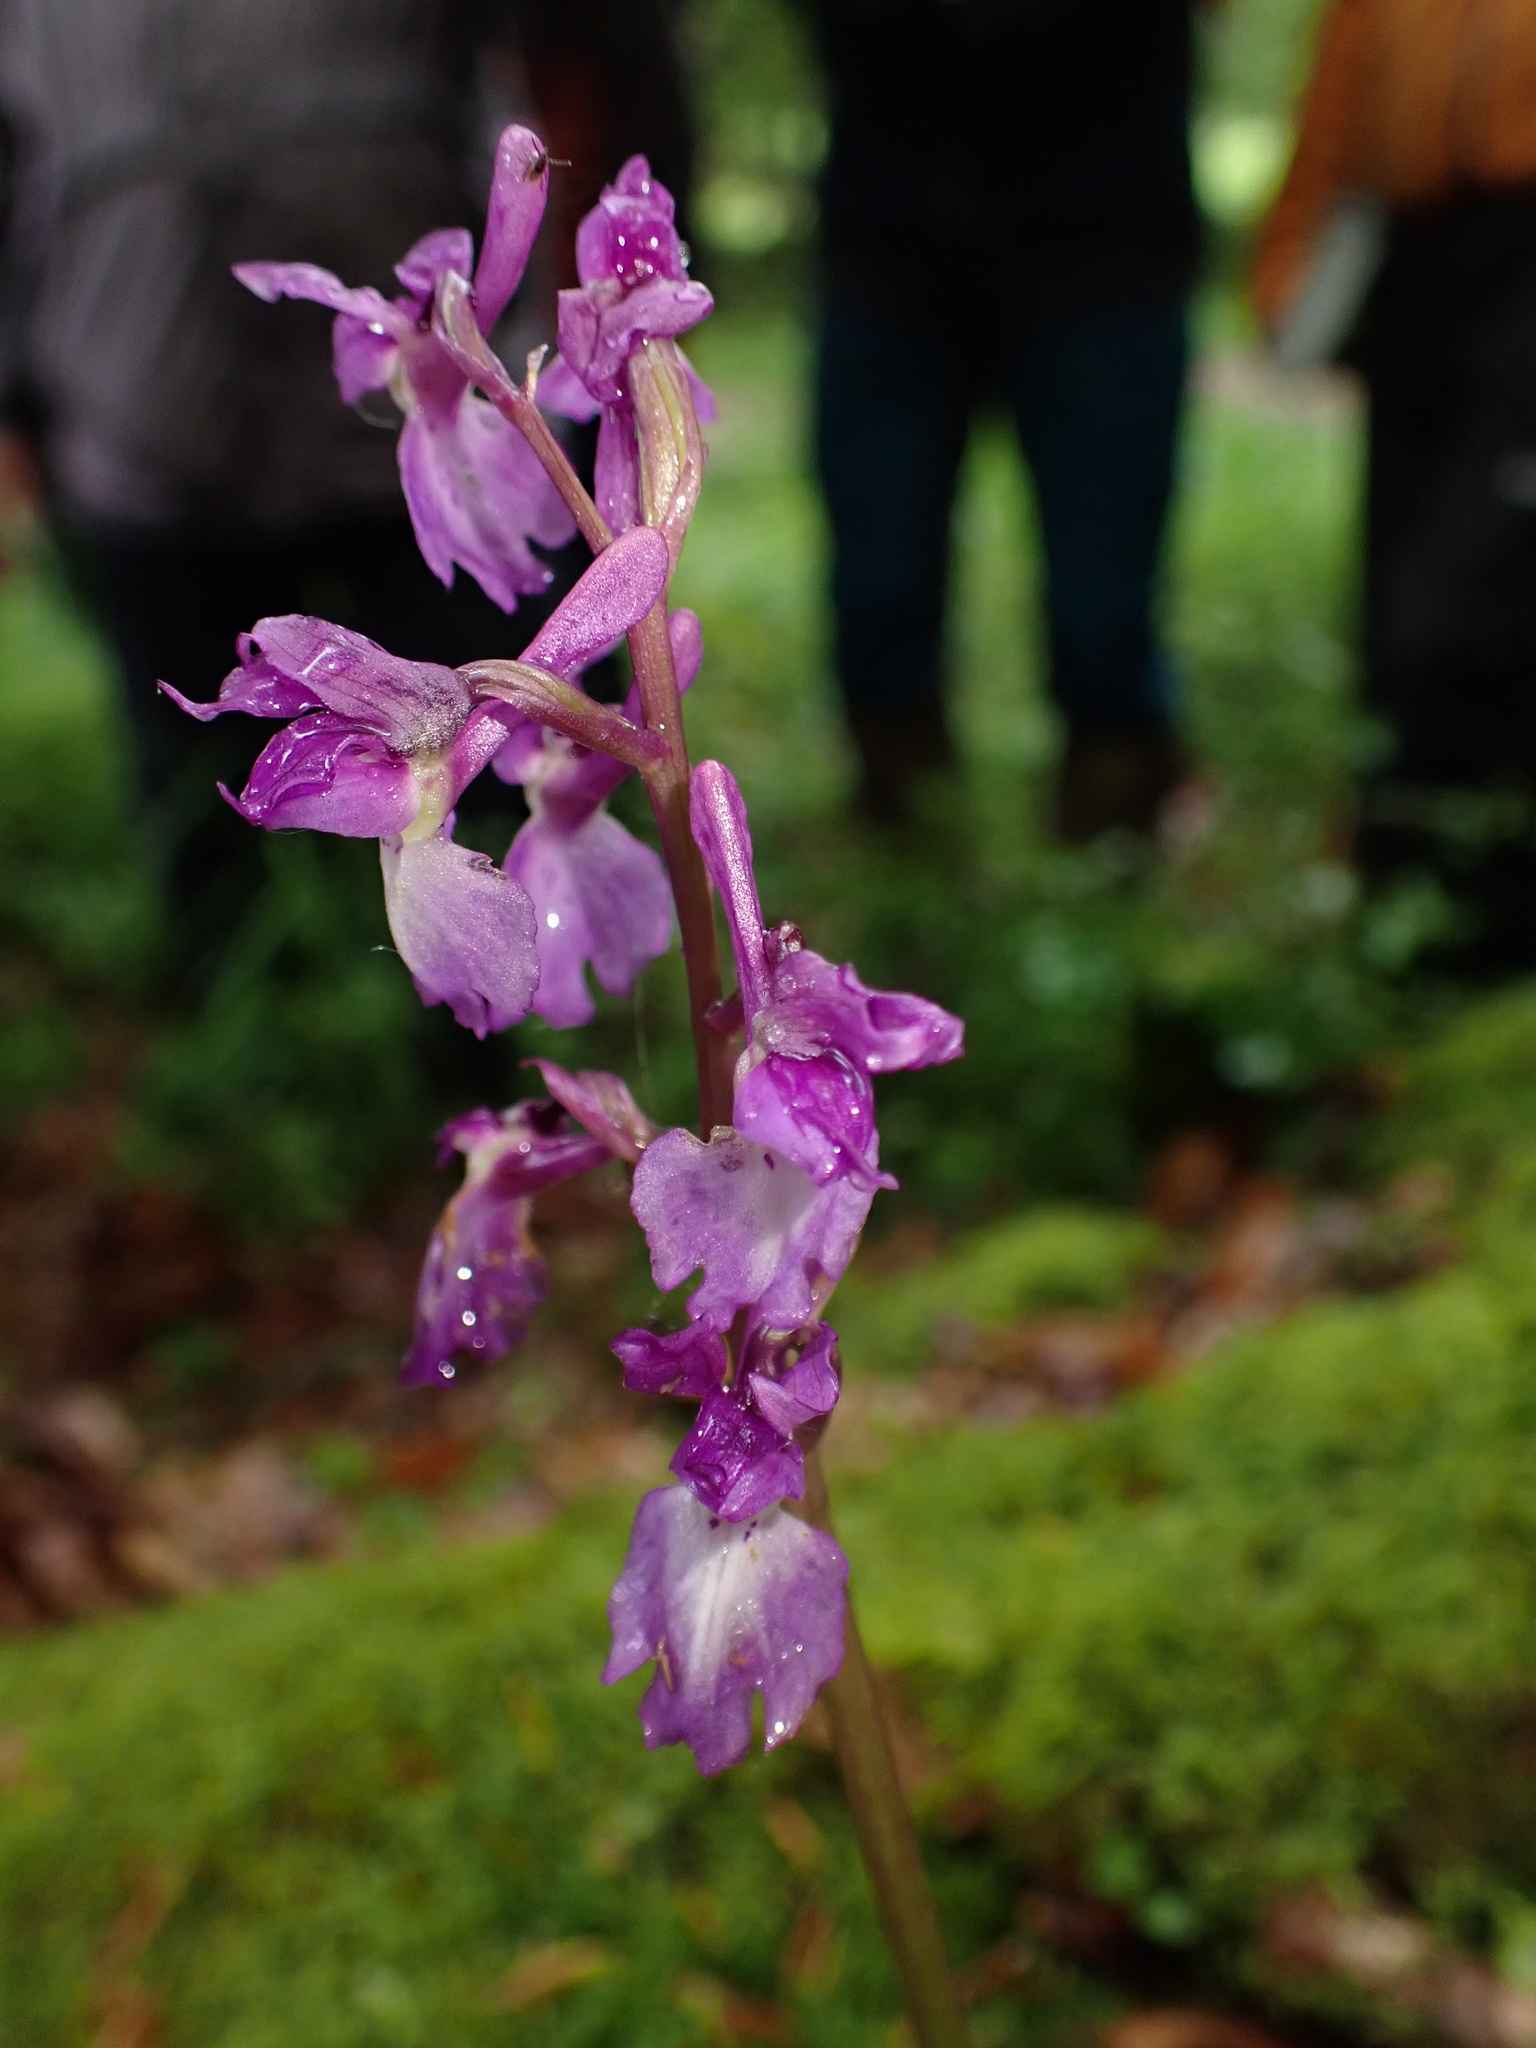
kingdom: Plantae
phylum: Tracheophyta
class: Liliopsida
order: Asparagales
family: Orchidaceae
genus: Orchis
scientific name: Orchis mascula
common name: Early-purple orchid
